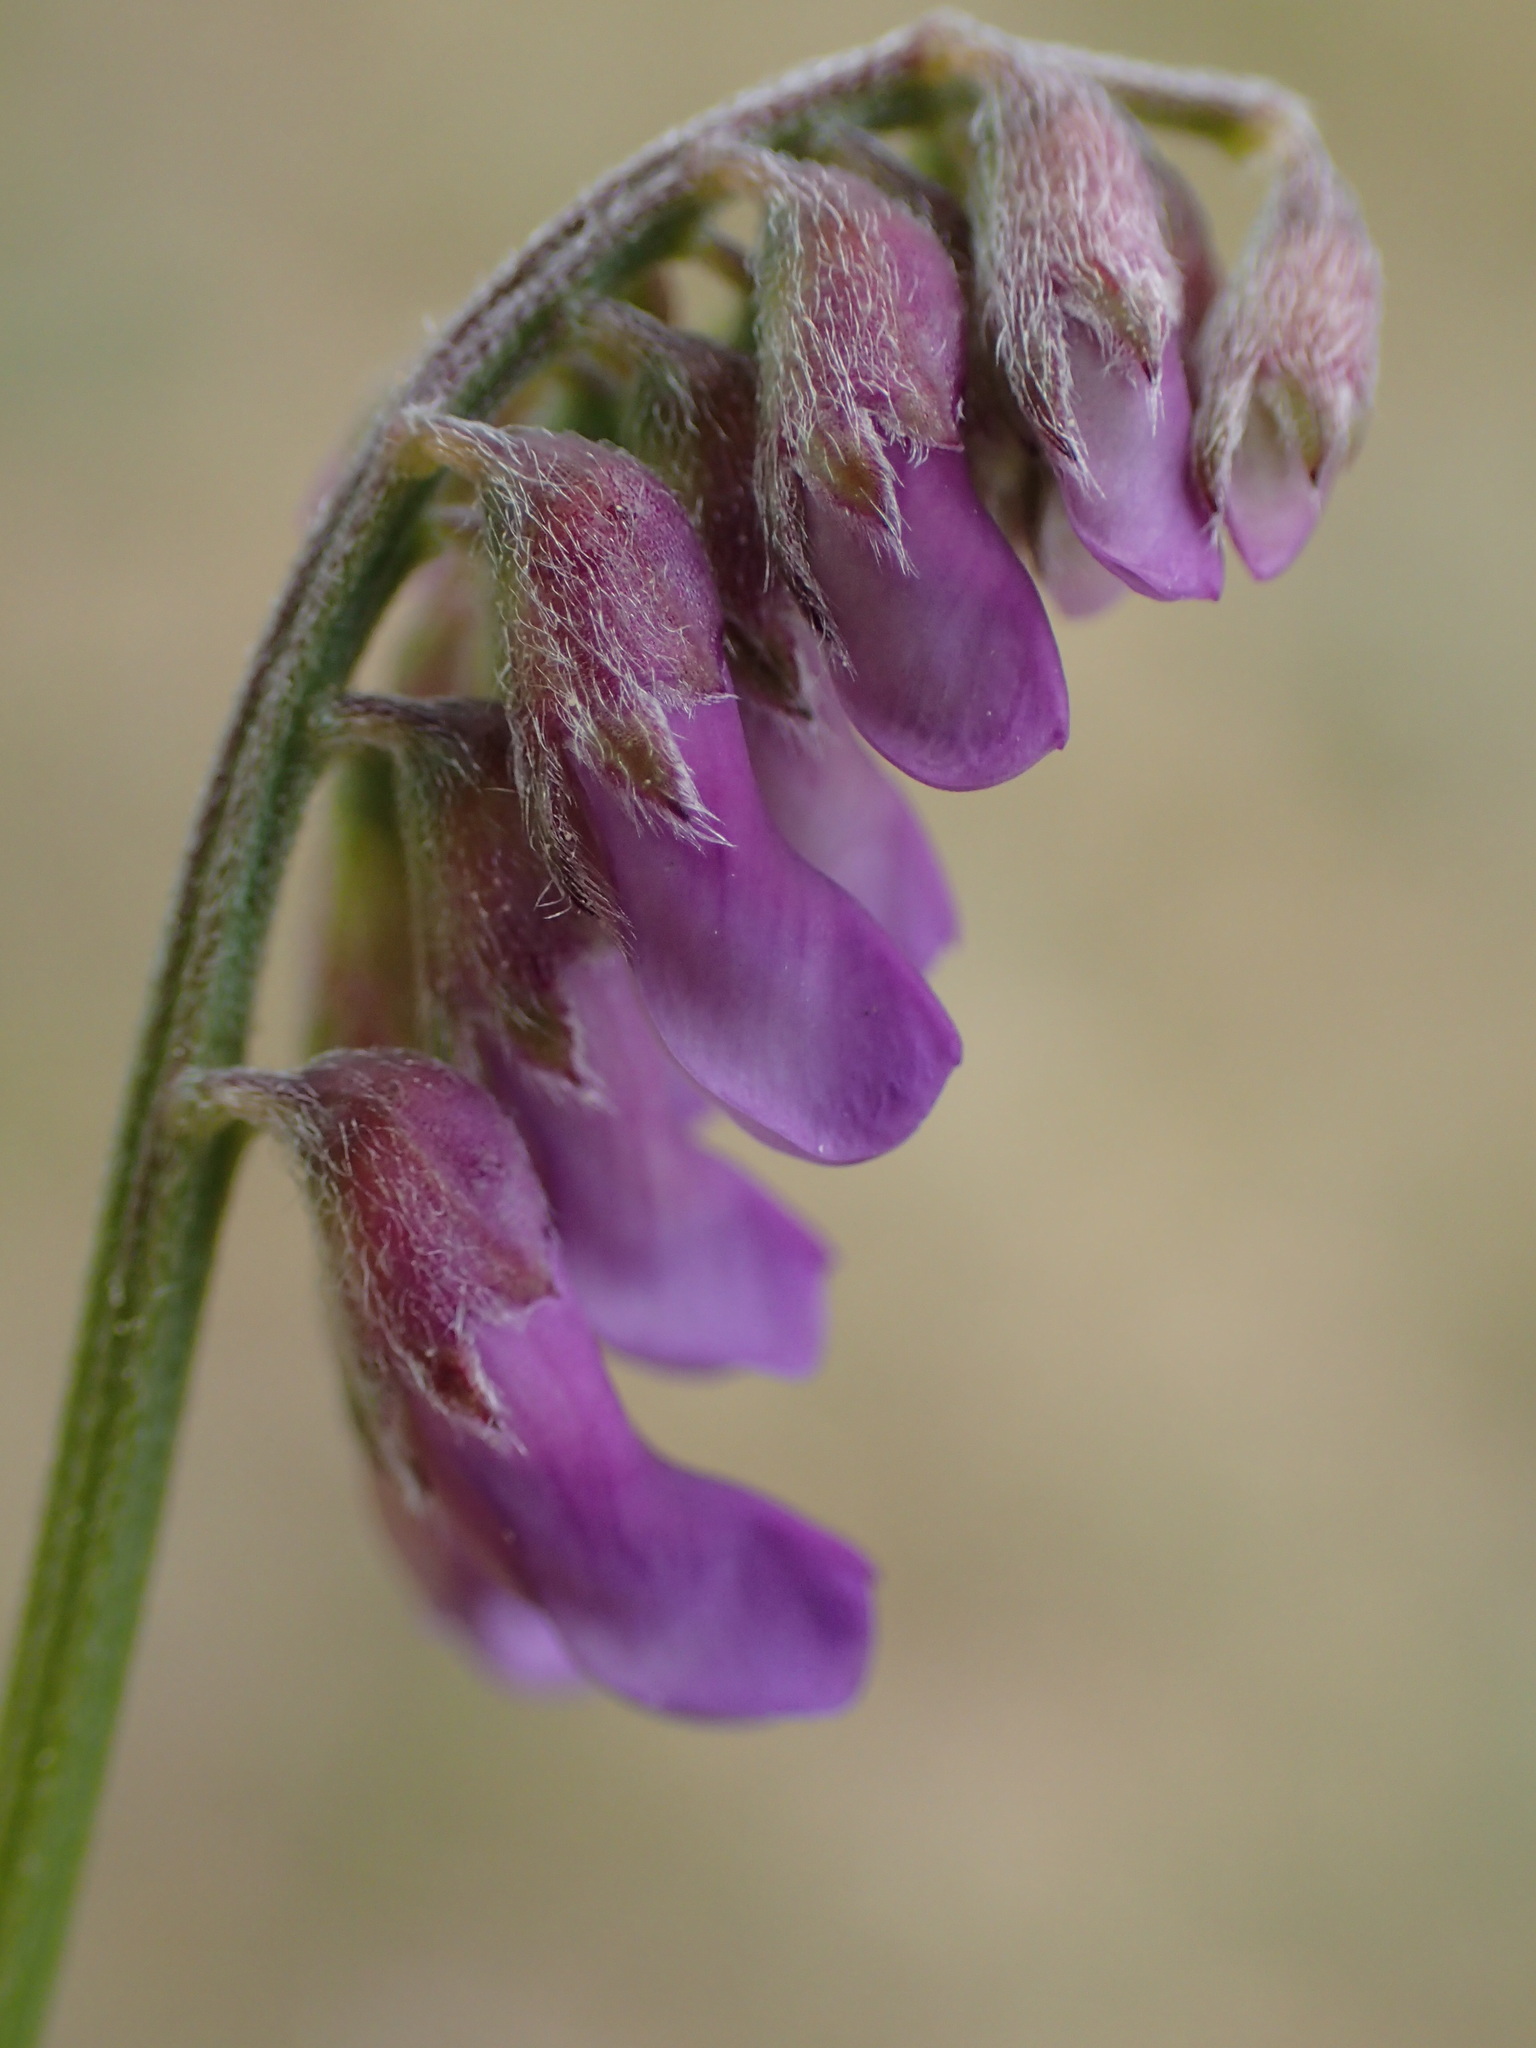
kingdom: Plantae
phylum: Tracheophyta
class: Magnoliopsida
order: Fabales
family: Fabaceae
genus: Vicia
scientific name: Vicia cracca
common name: Bird vetch
